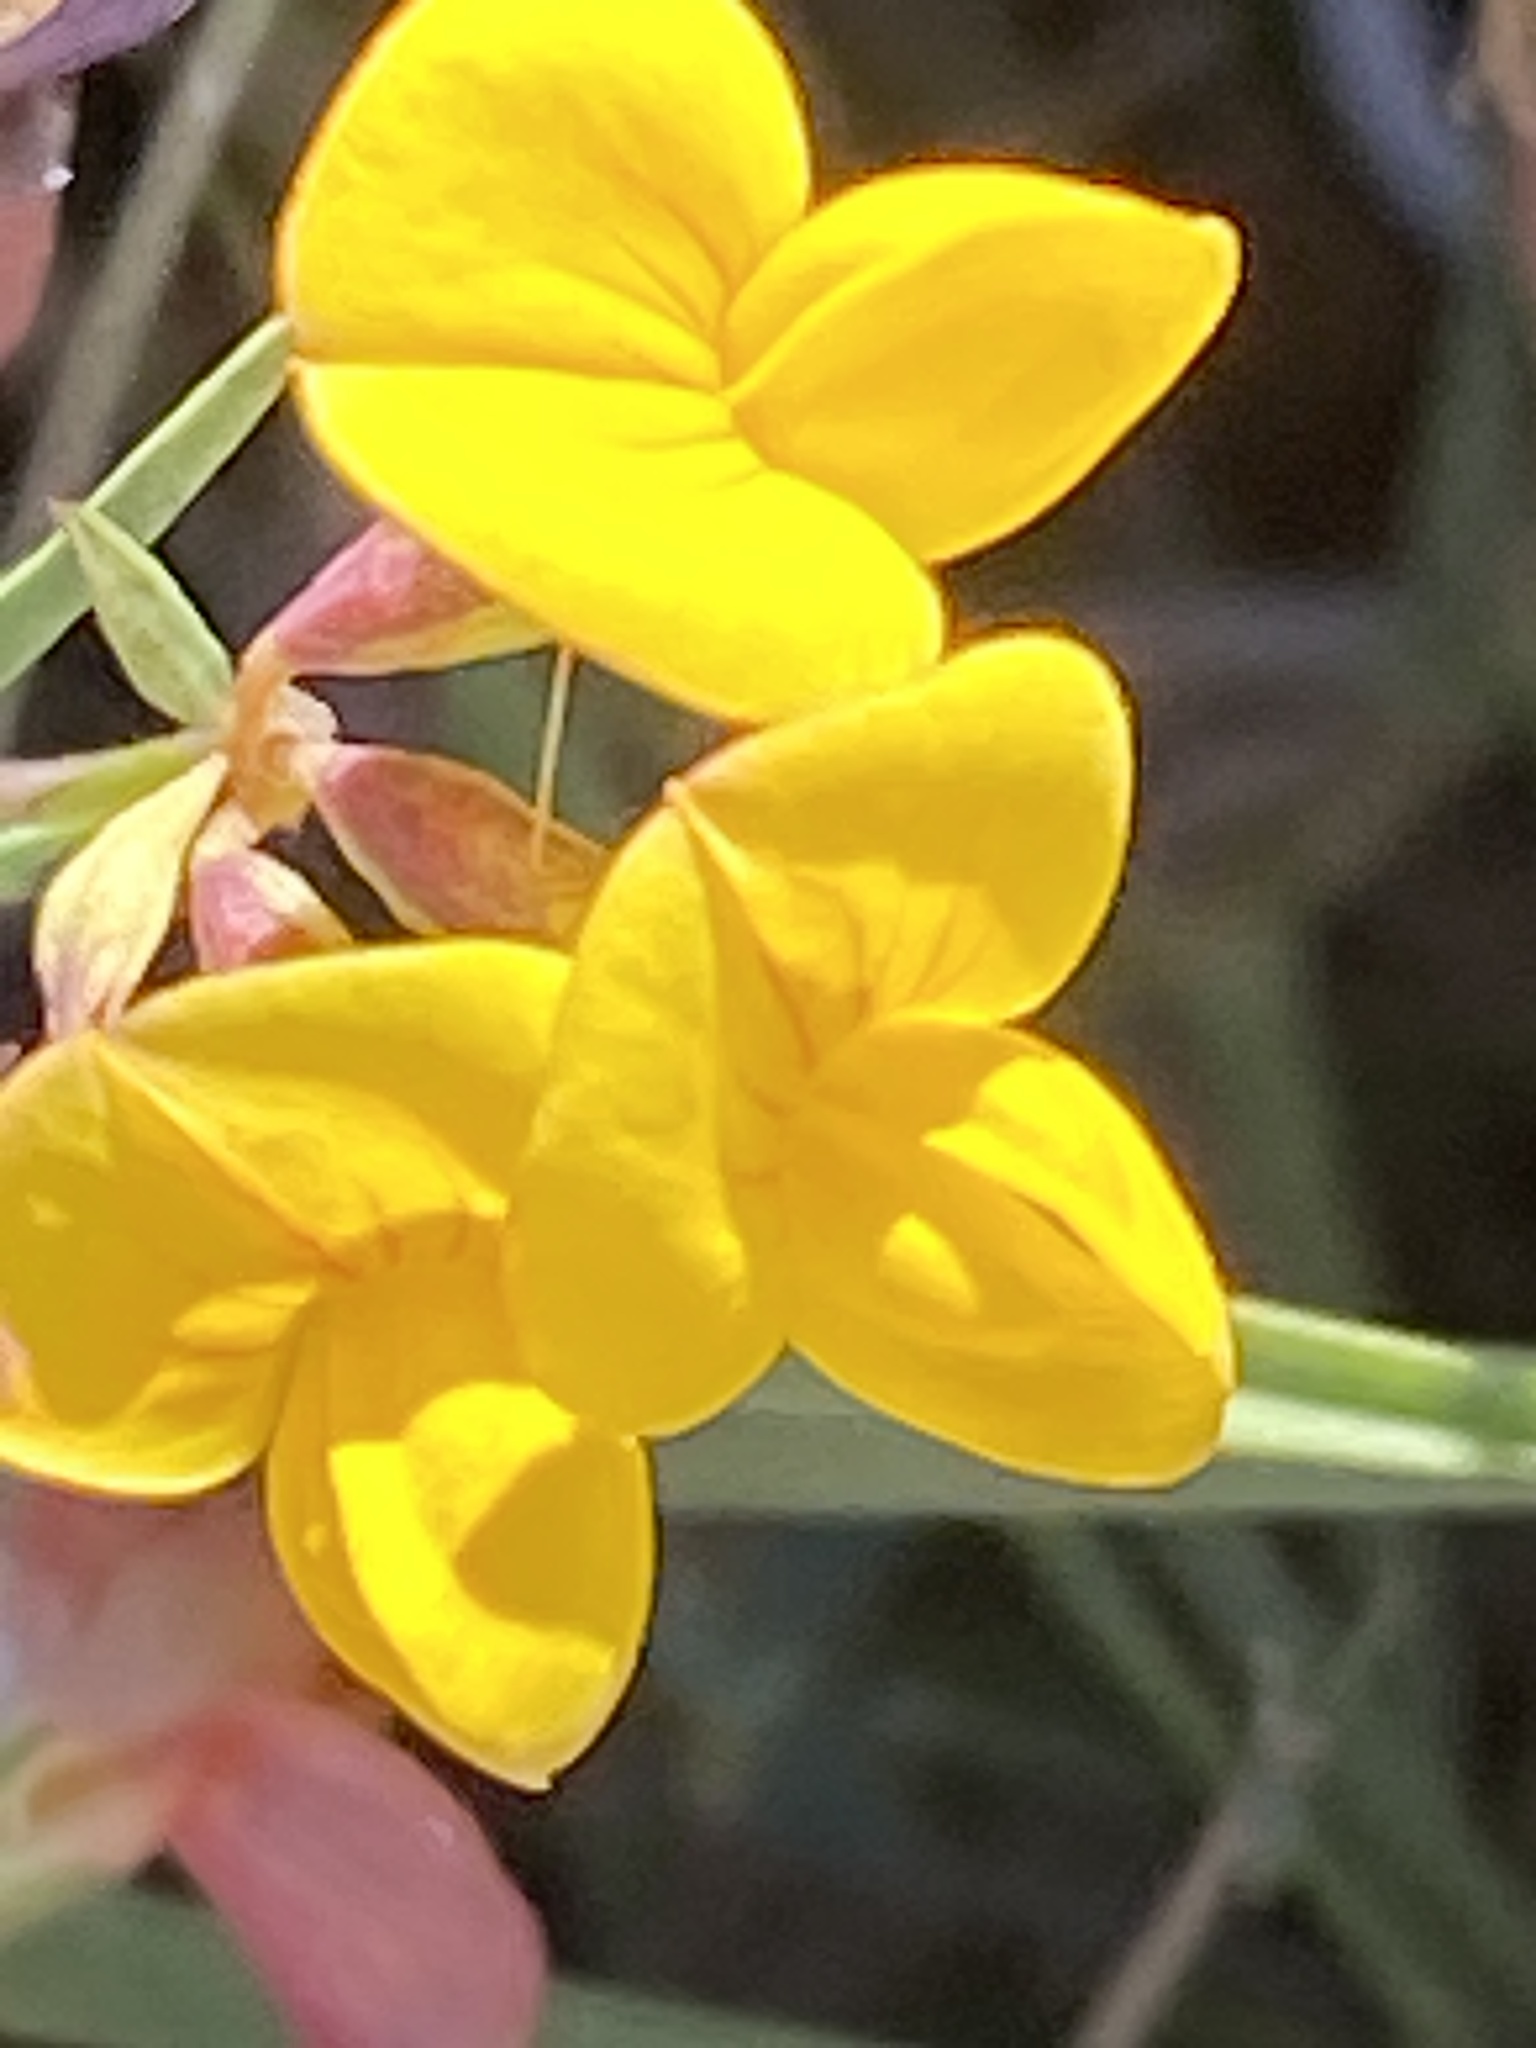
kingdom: Plantae
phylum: Tracheophyta
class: Magnoliopsida
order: Fabales
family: Fabaceae
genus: Lotus
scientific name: Lotus corniculatus
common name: Common bird's-foot-trefoil
